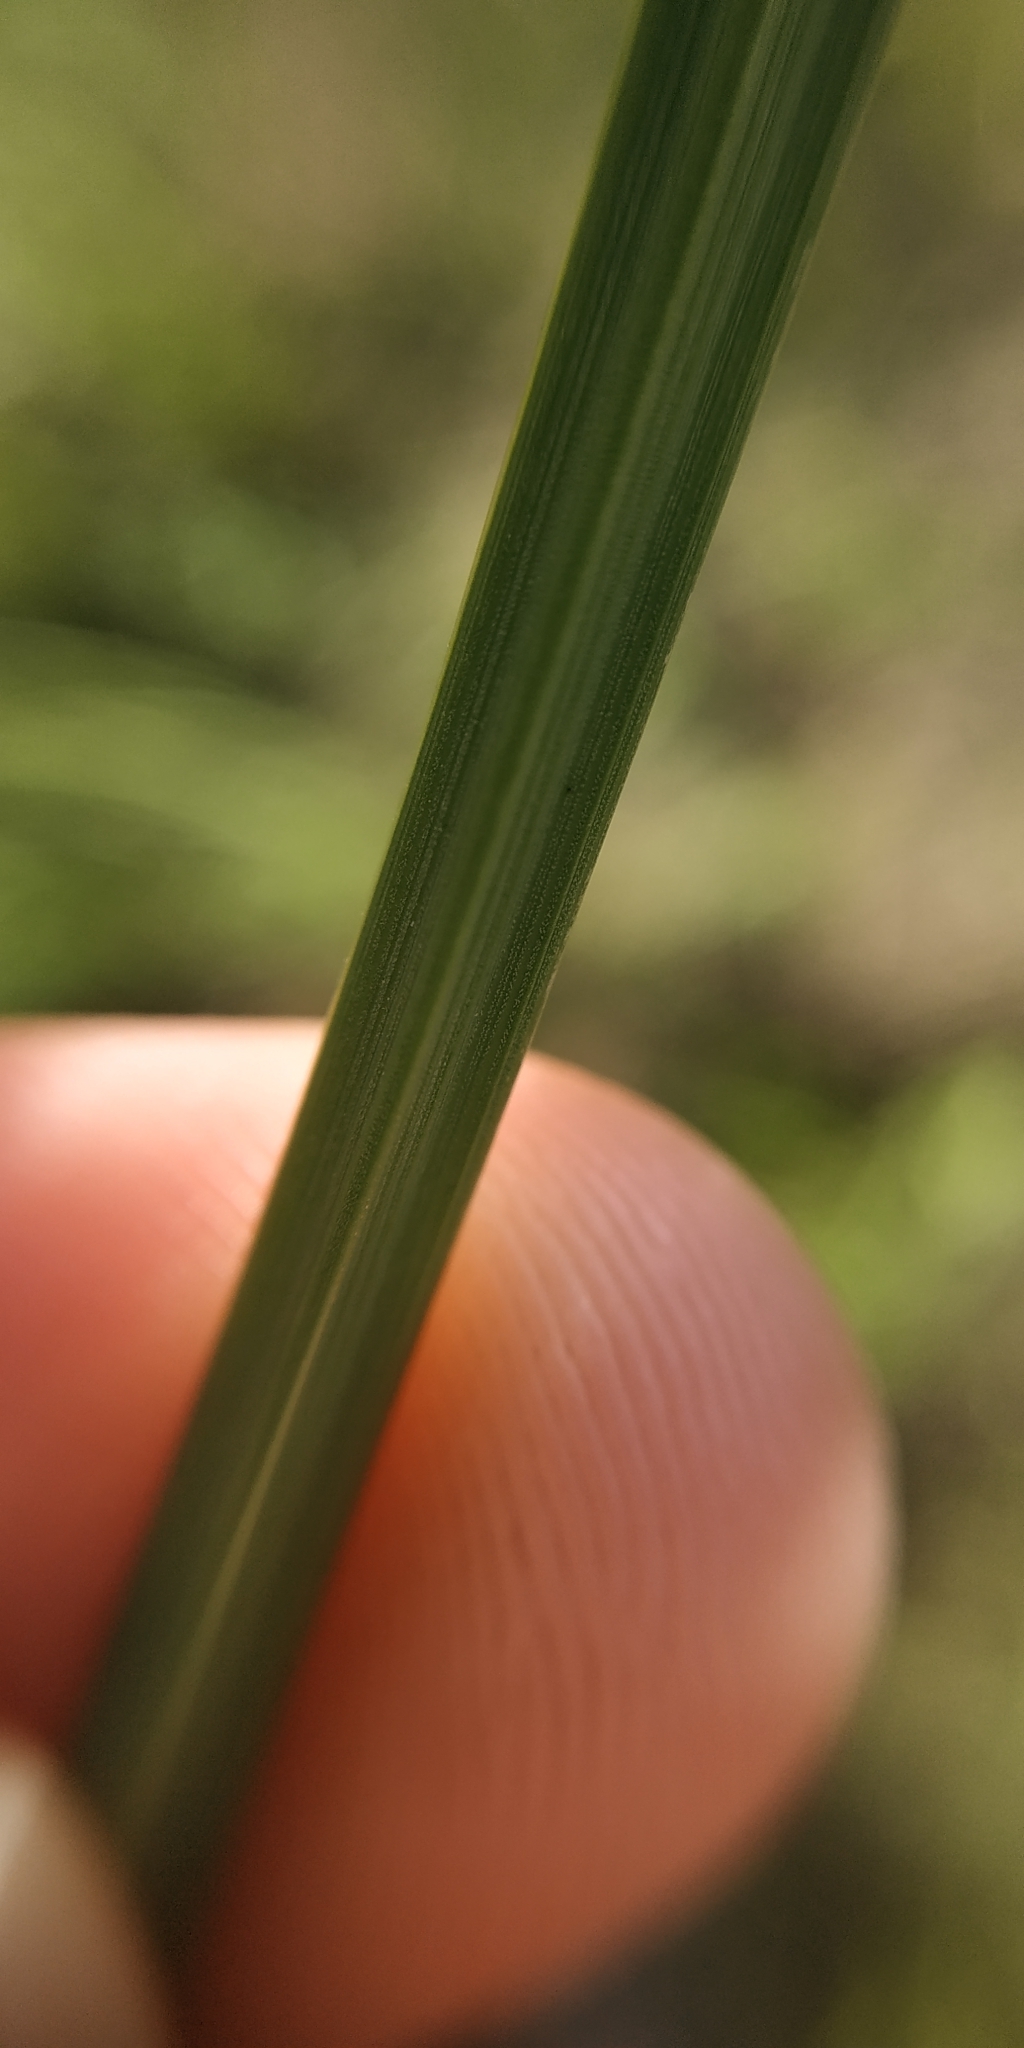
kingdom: Plantae
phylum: Tracheophyta
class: Liliopsida
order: Poales
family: Cyperaceae
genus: Carex
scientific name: Carex acuta
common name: Slender tufted-sedge
